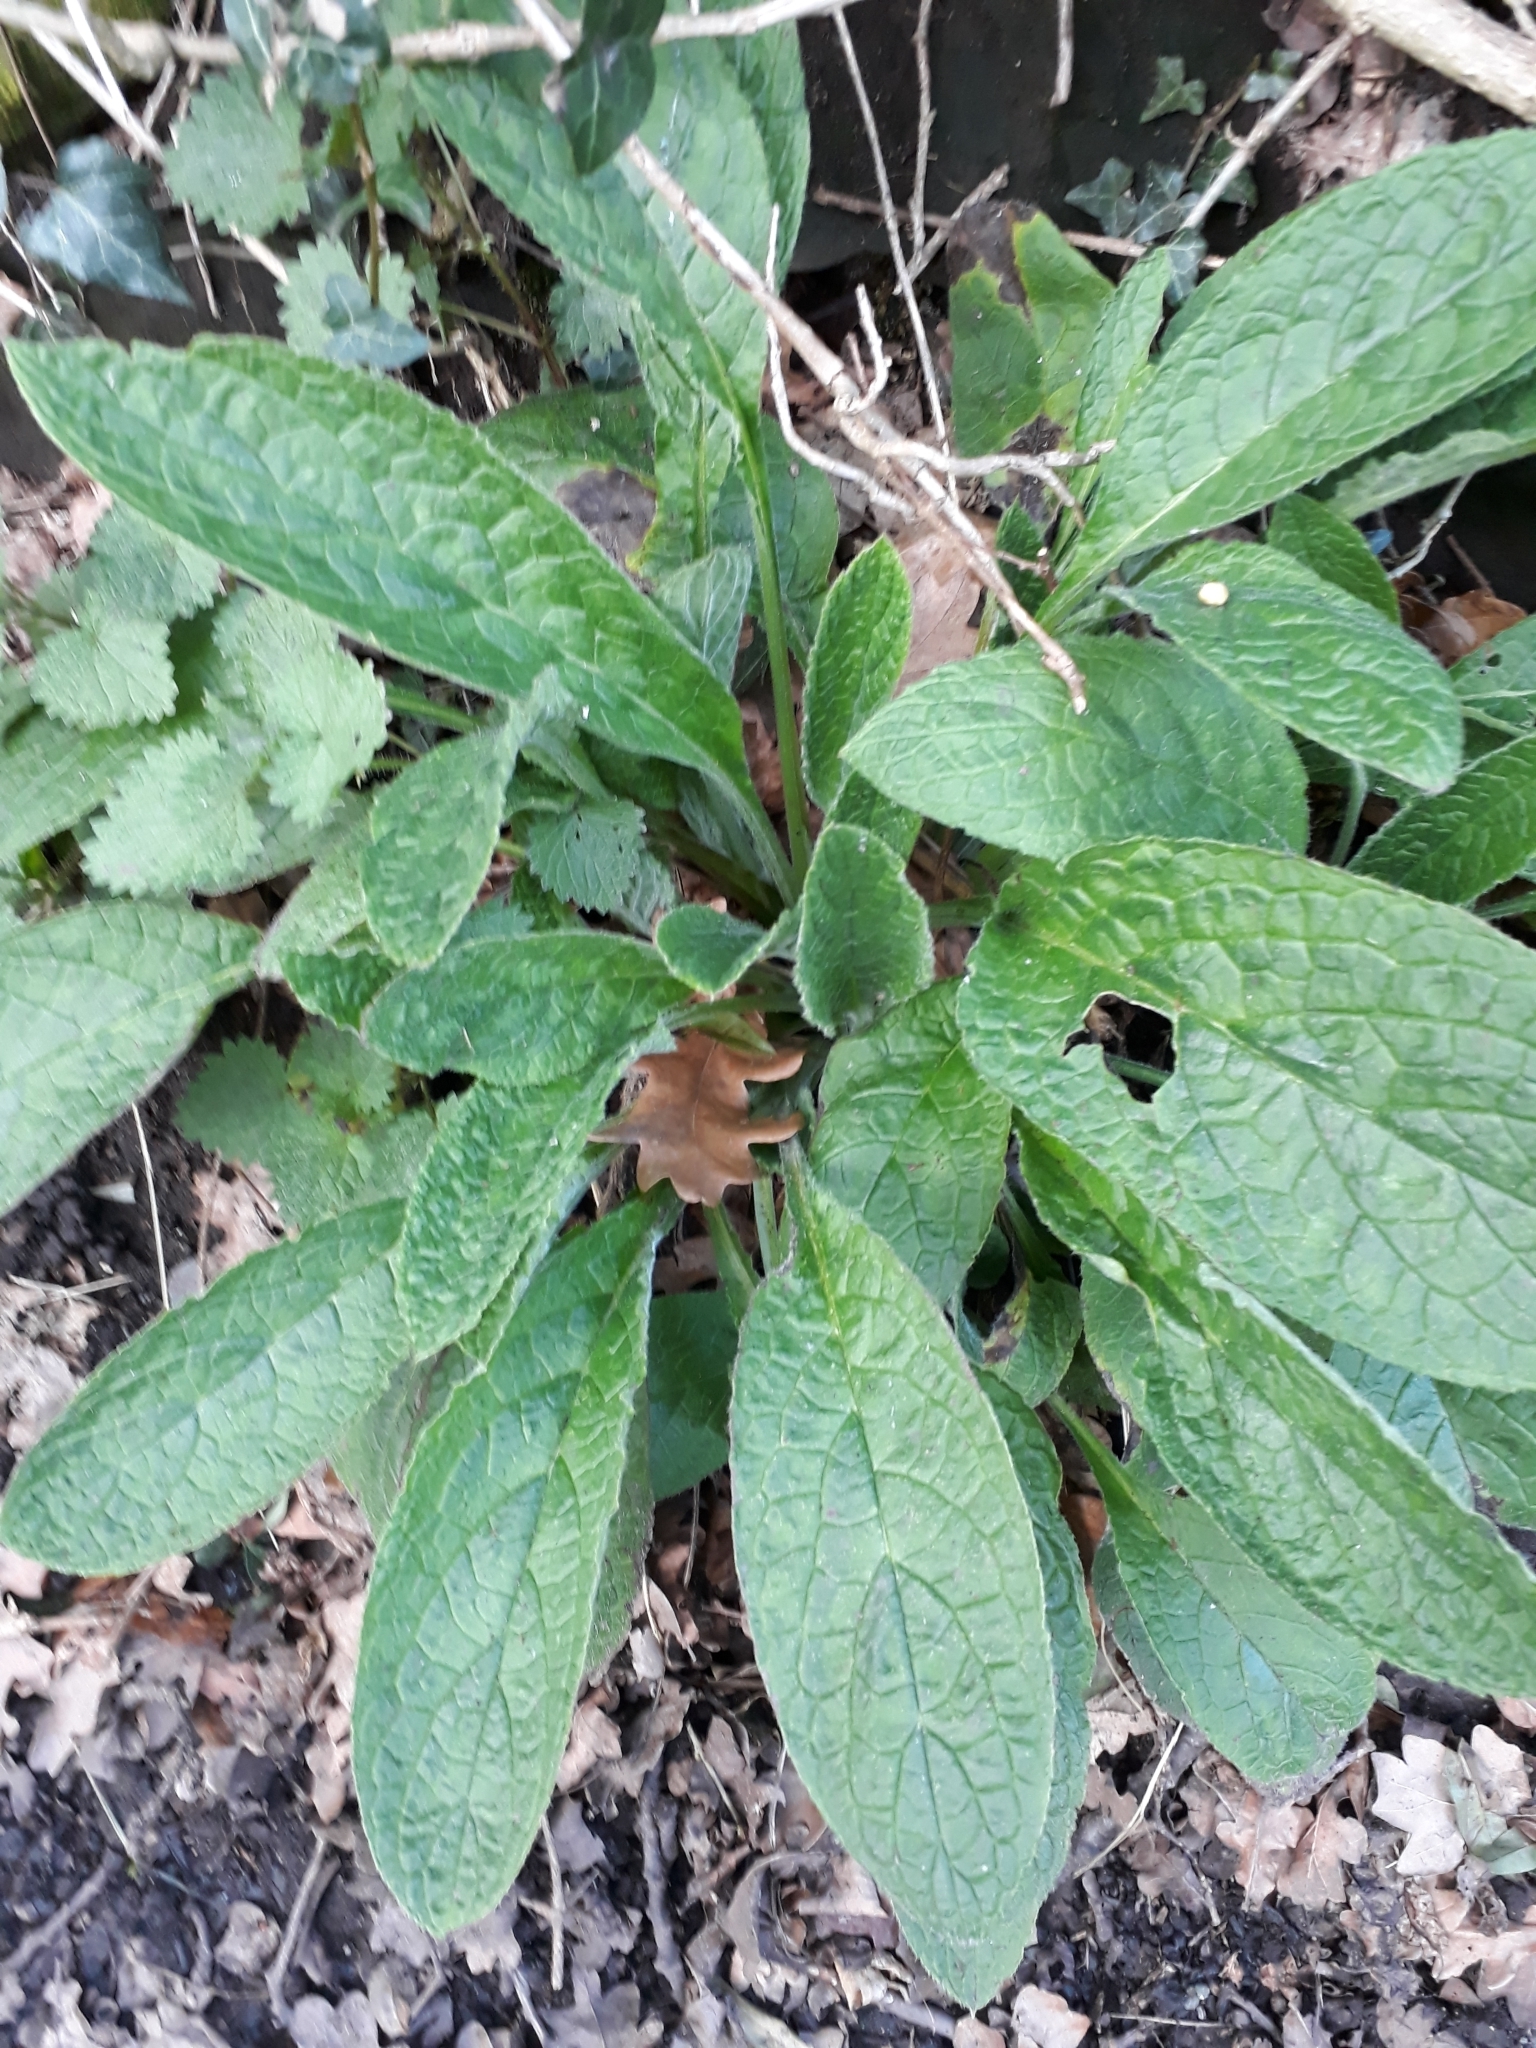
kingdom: Plantae
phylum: Tracheophyta
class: Magnoliopsida
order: Boraginales
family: Boraginaceae
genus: Pentaglottis
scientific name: Pentaglottis sempervirens
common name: Green alkanet
